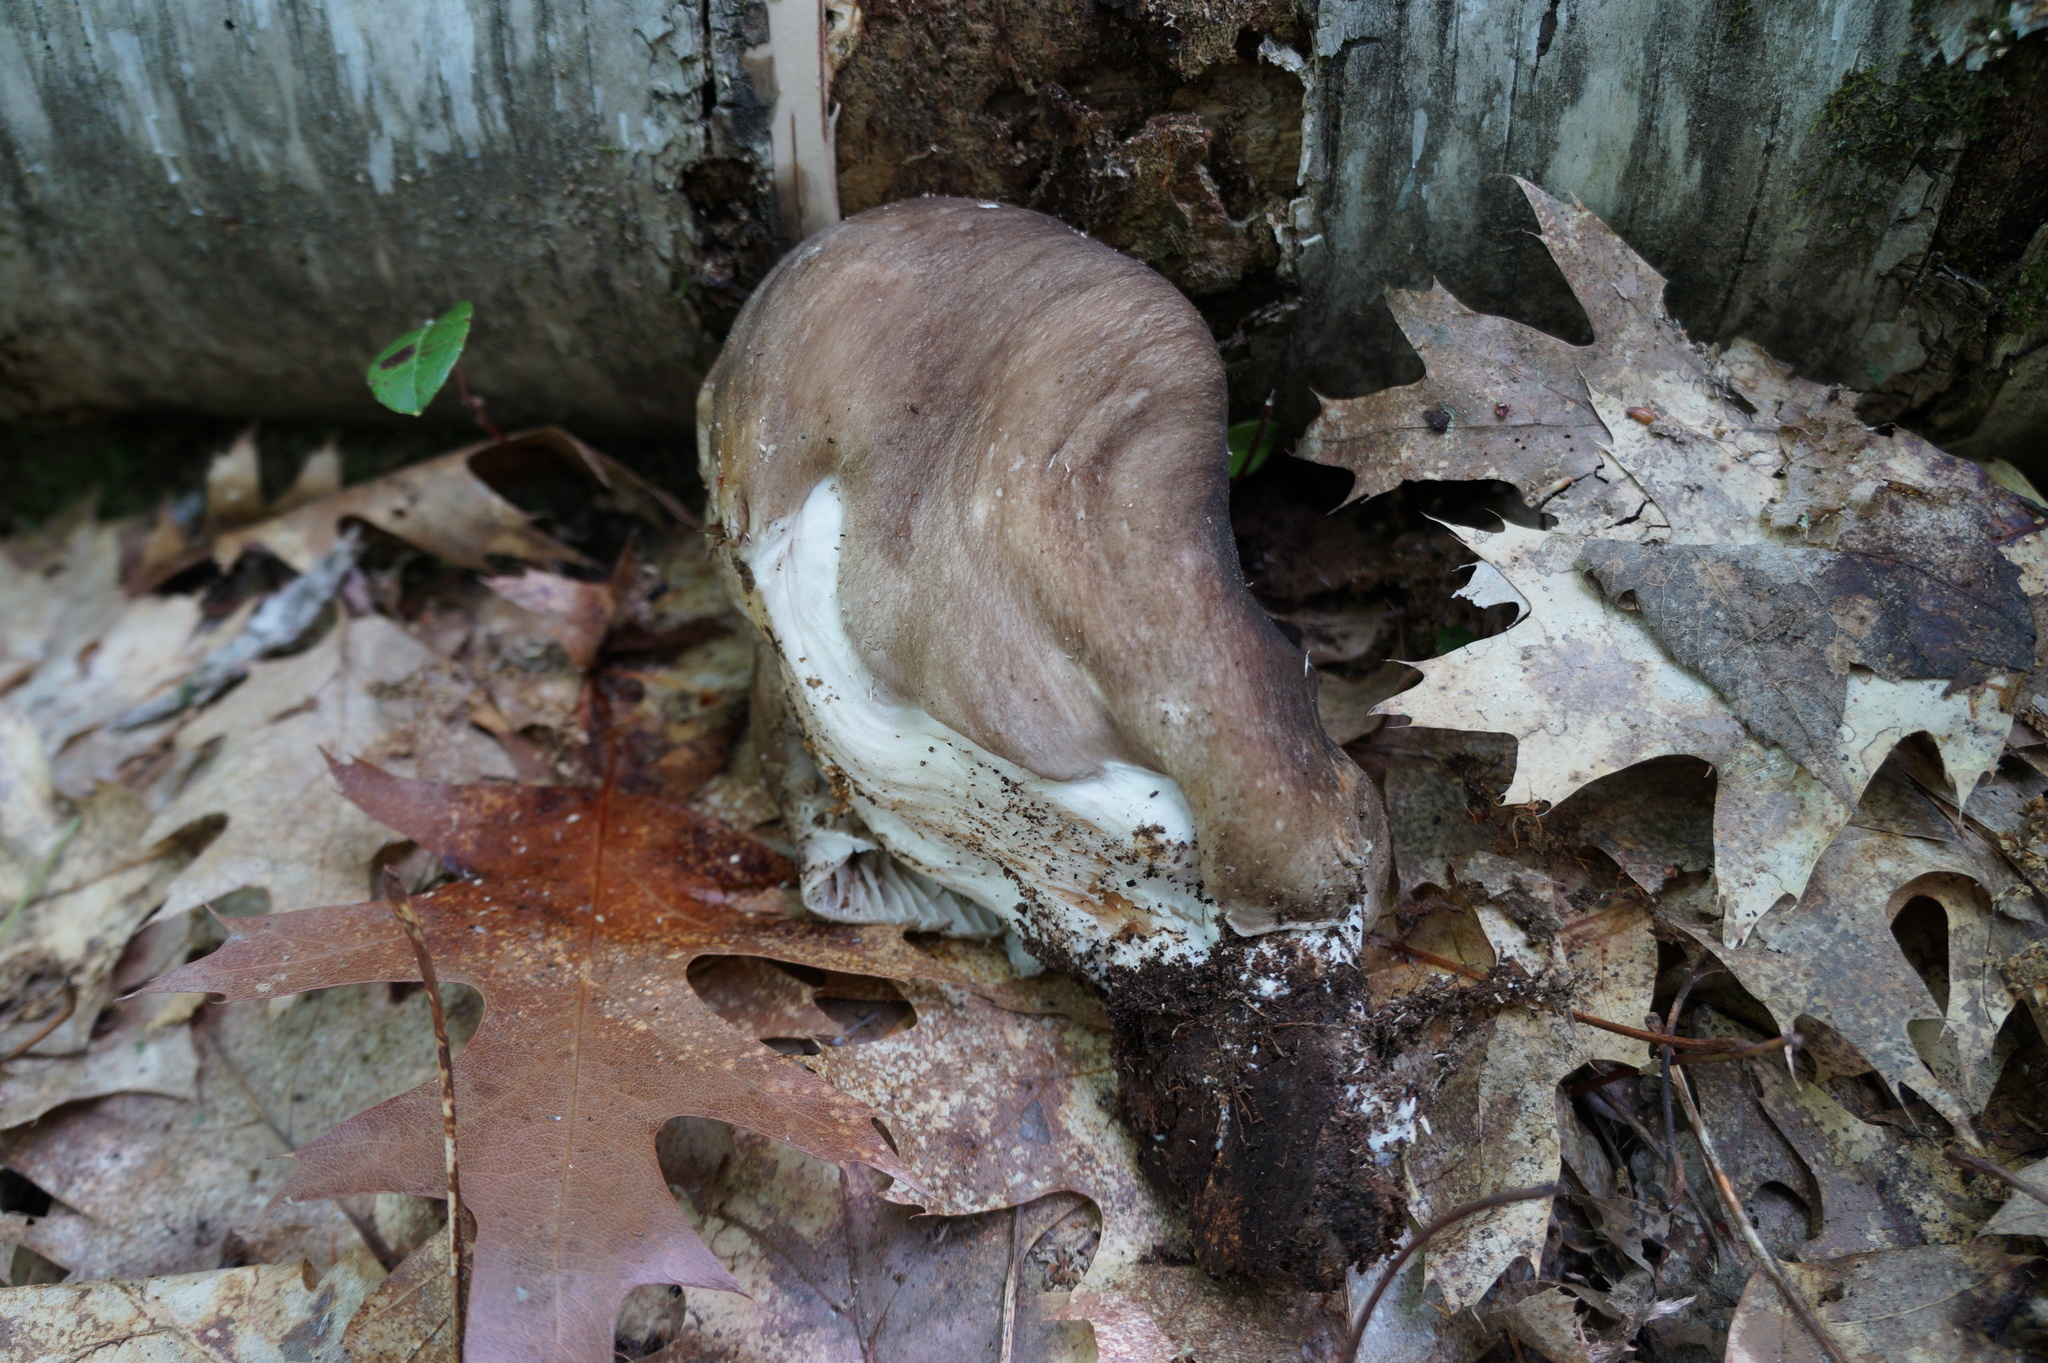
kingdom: Fungi
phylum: Basidiomycota
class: Agaricomycetes
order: Agaricales
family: Tricholomataceae
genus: Megacollybia
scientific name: Megacollybia rodmanii
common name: Eastern american platterful mushroom
